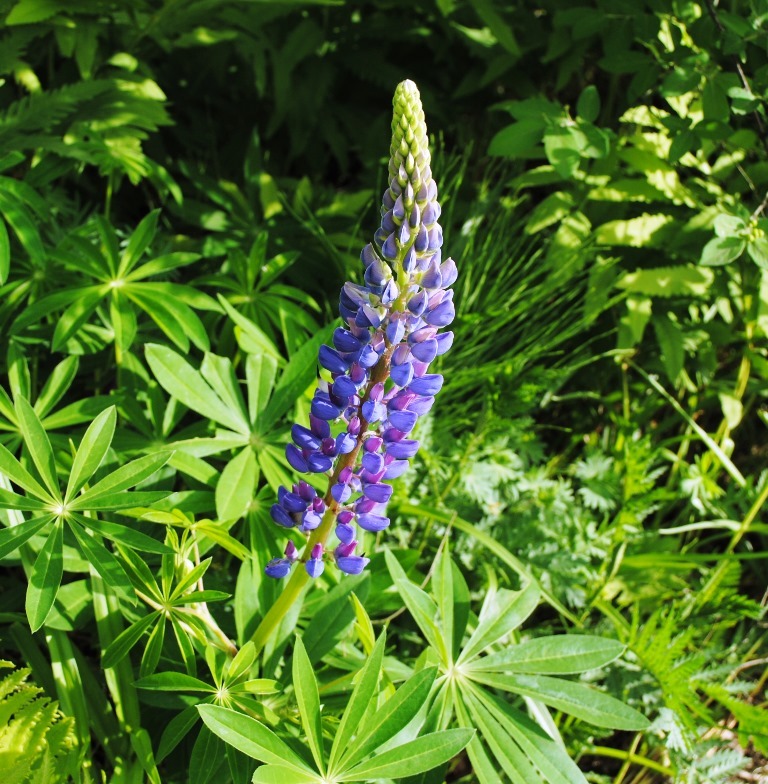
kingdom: Plantae
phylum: Tracheophyta
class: Magnoliopsida
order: Fabales
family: Fabaceae
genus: Lupinus
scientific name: Lupinus polyphyllus
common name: Garden lupin
